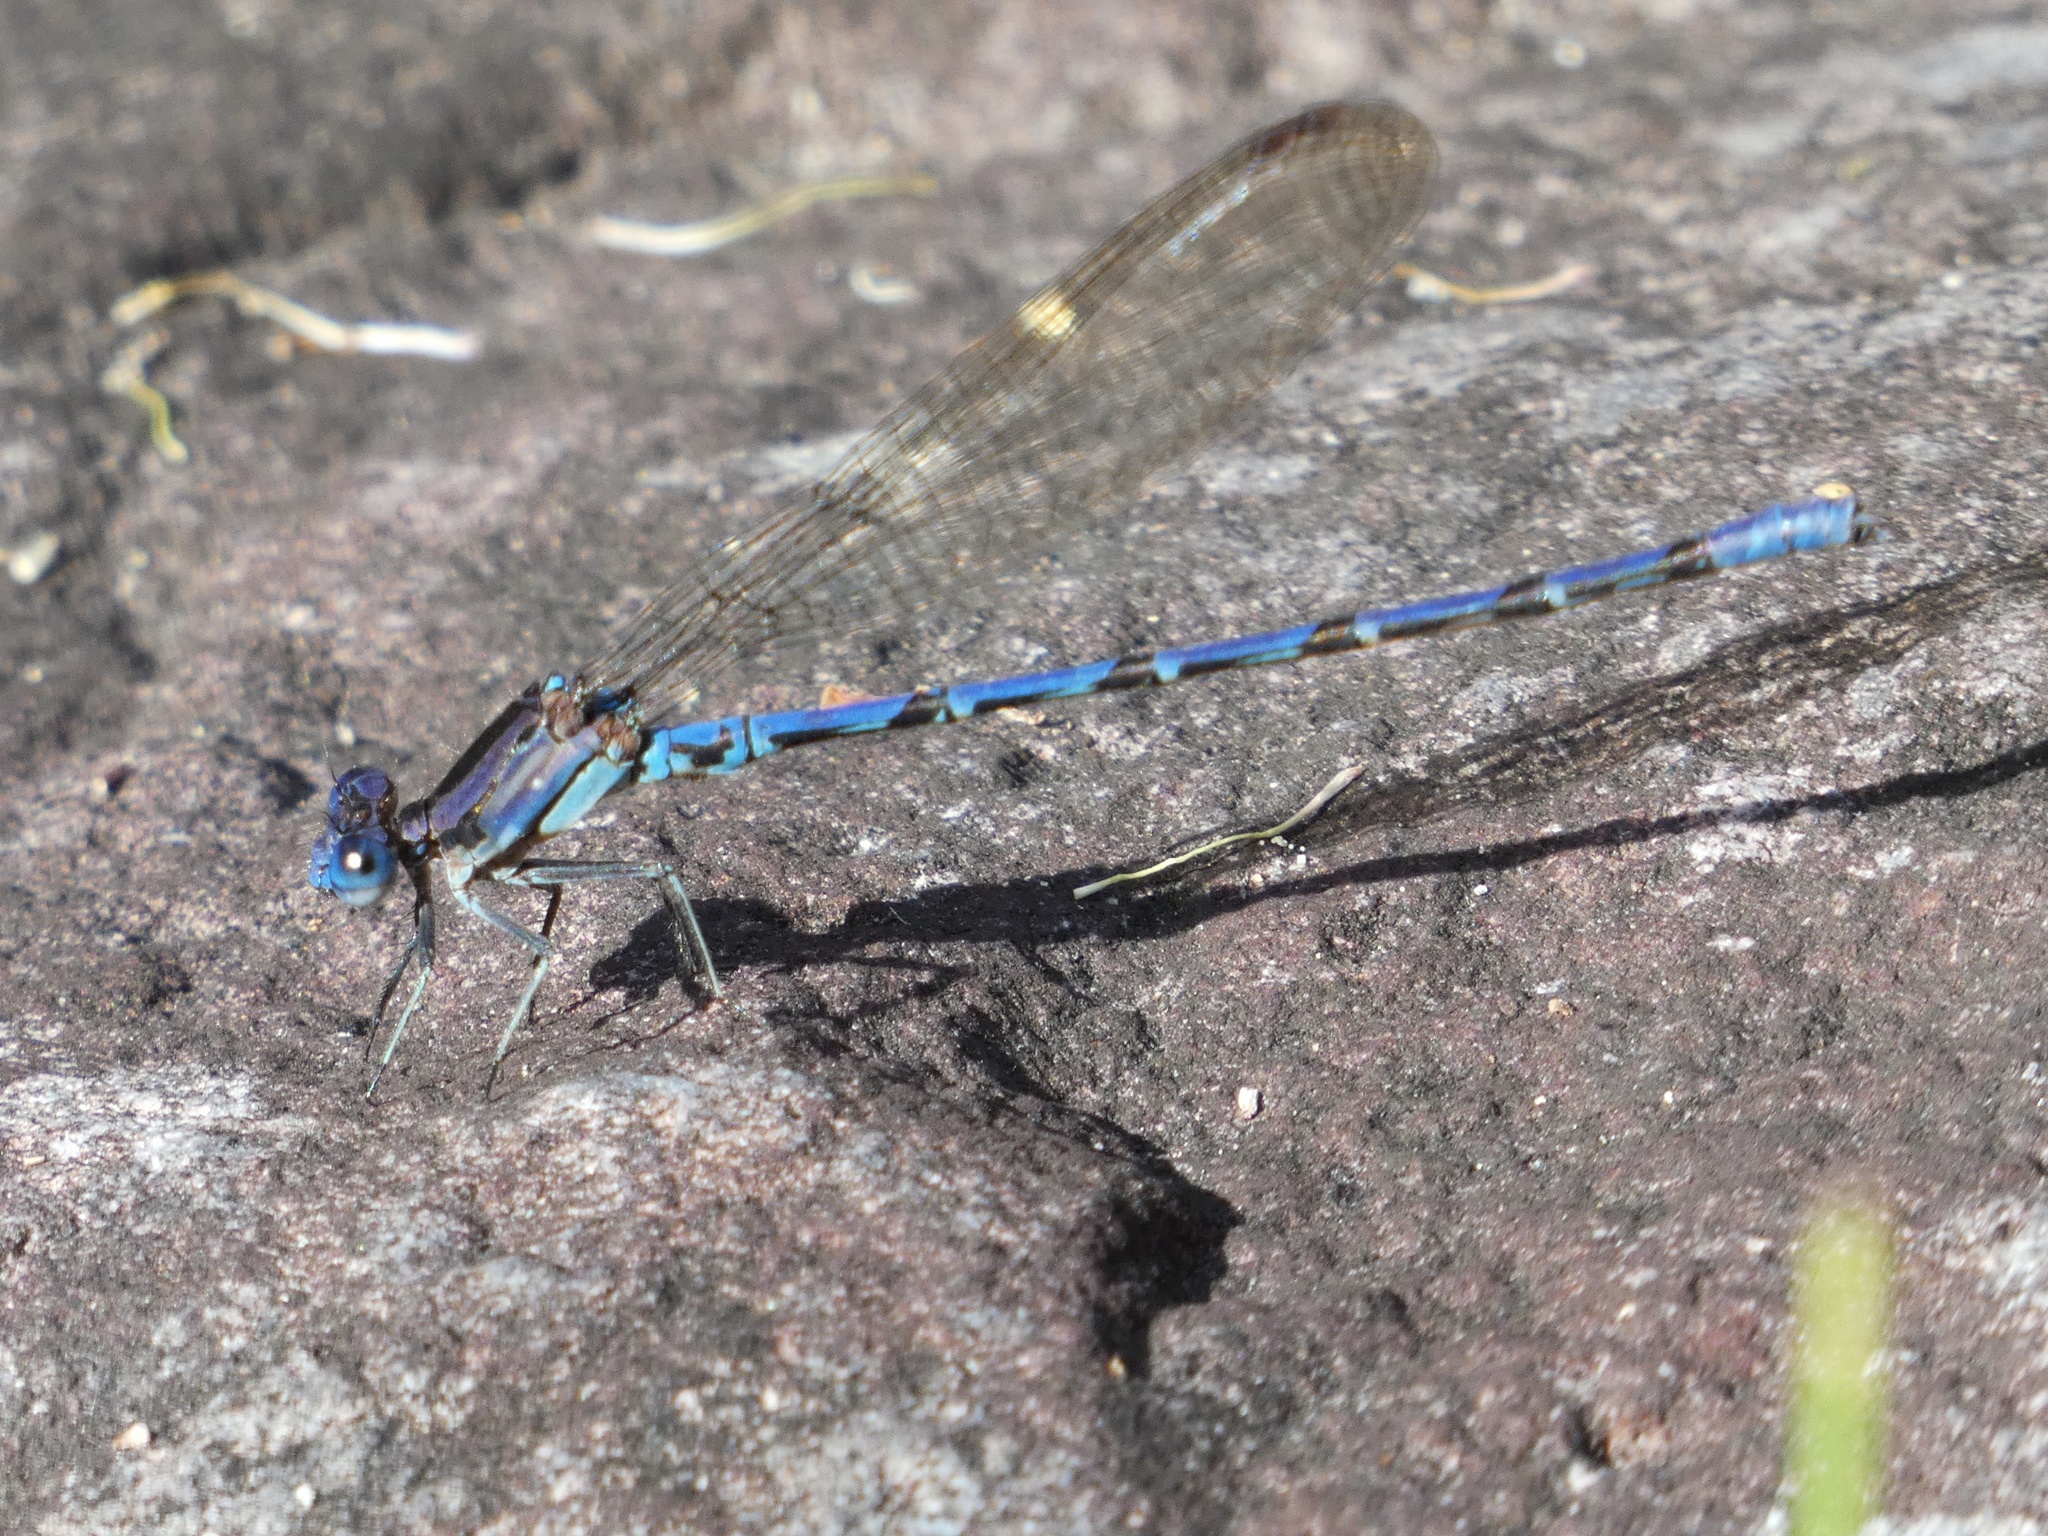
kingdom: Animalia
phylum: Arthropoda
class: Insecta
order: Odonata
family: Coenagrionidae
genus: Argia
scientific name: Argia elongata
